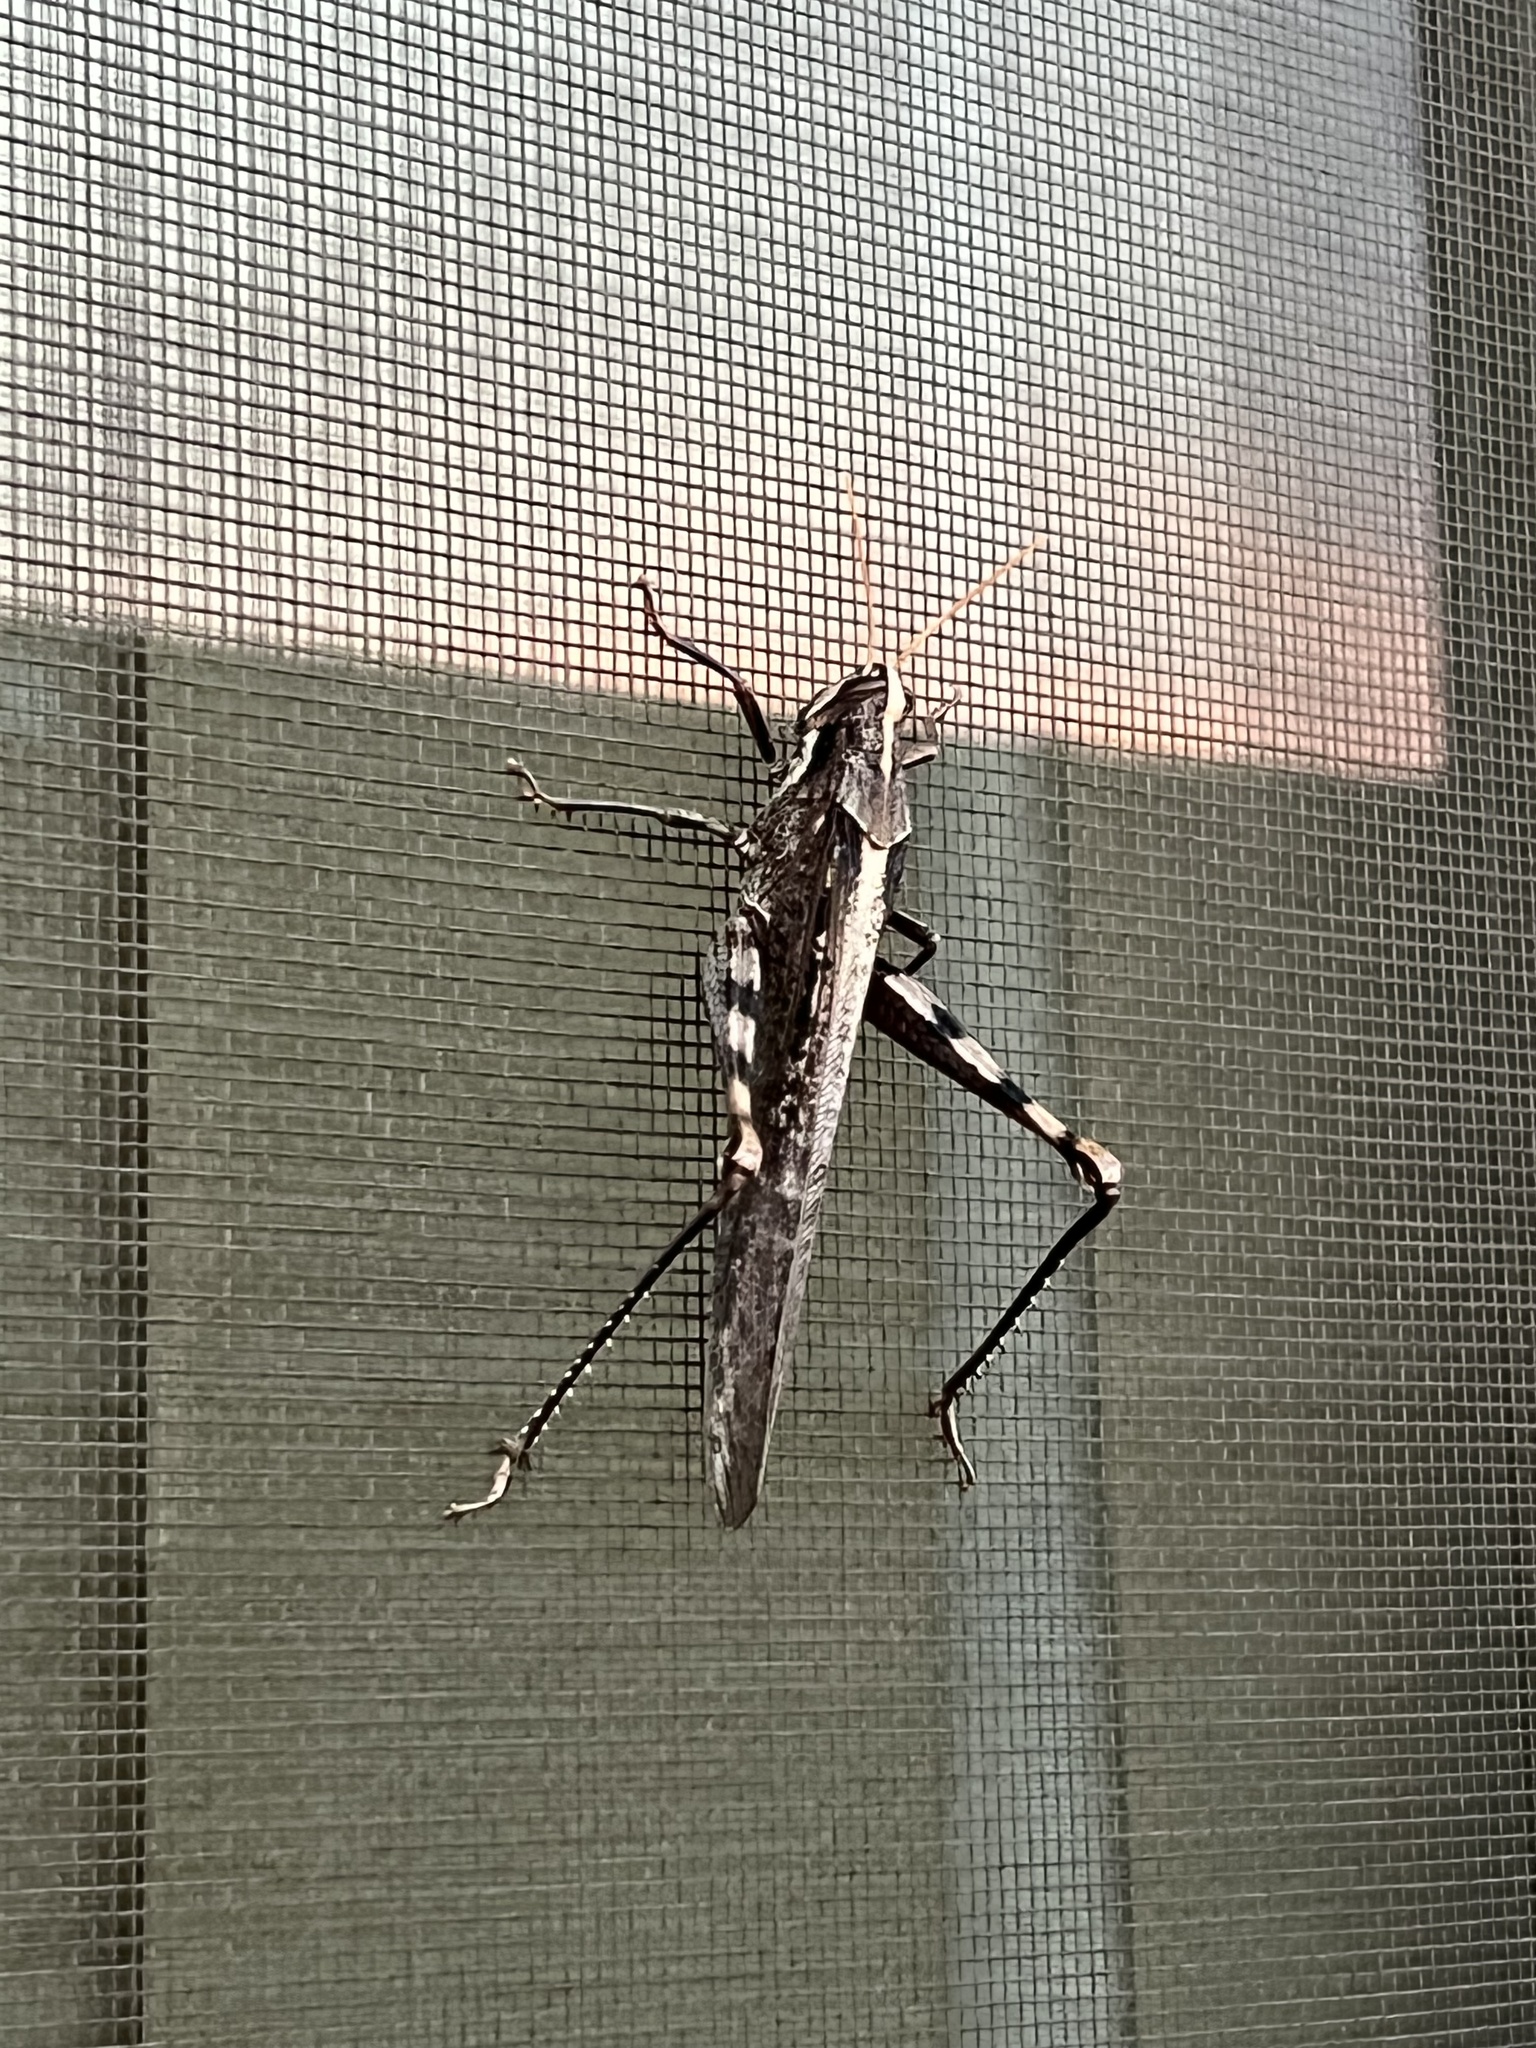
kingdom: Animalia
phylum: Arthropoda
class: Insecta
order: Orthoptera
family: Acrididae
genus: Schistocerca
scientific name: Schistocerca nitens
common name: Vagrant grasshopper
